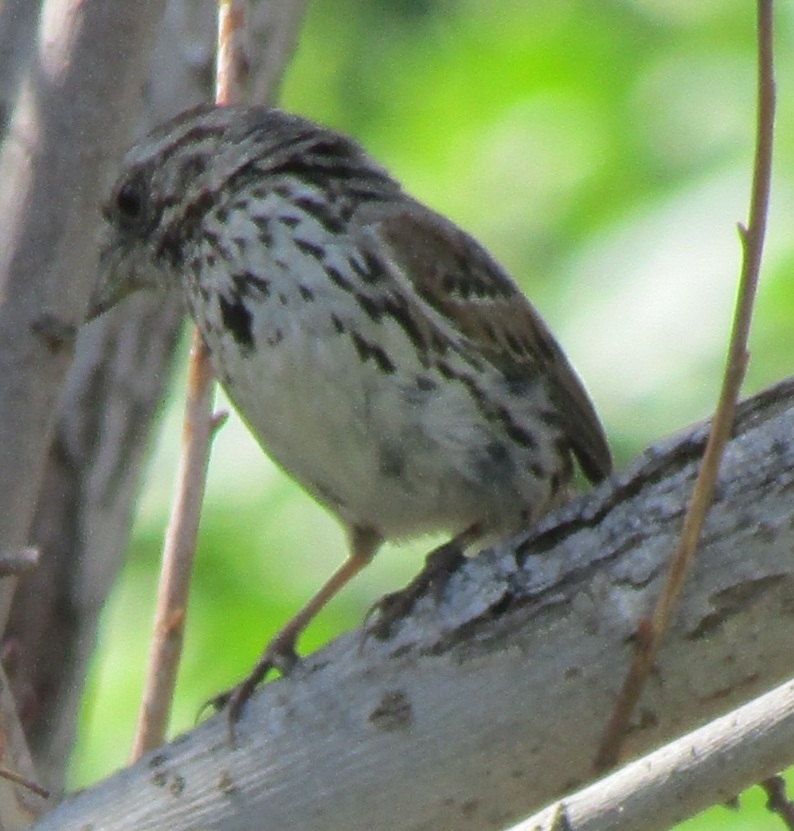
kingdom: Animalia
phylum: Chordata
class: Aves
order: Passeriformes
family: Passerellidae
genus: Melospiza
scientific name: Melospiza melodia
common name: Song sparrow
